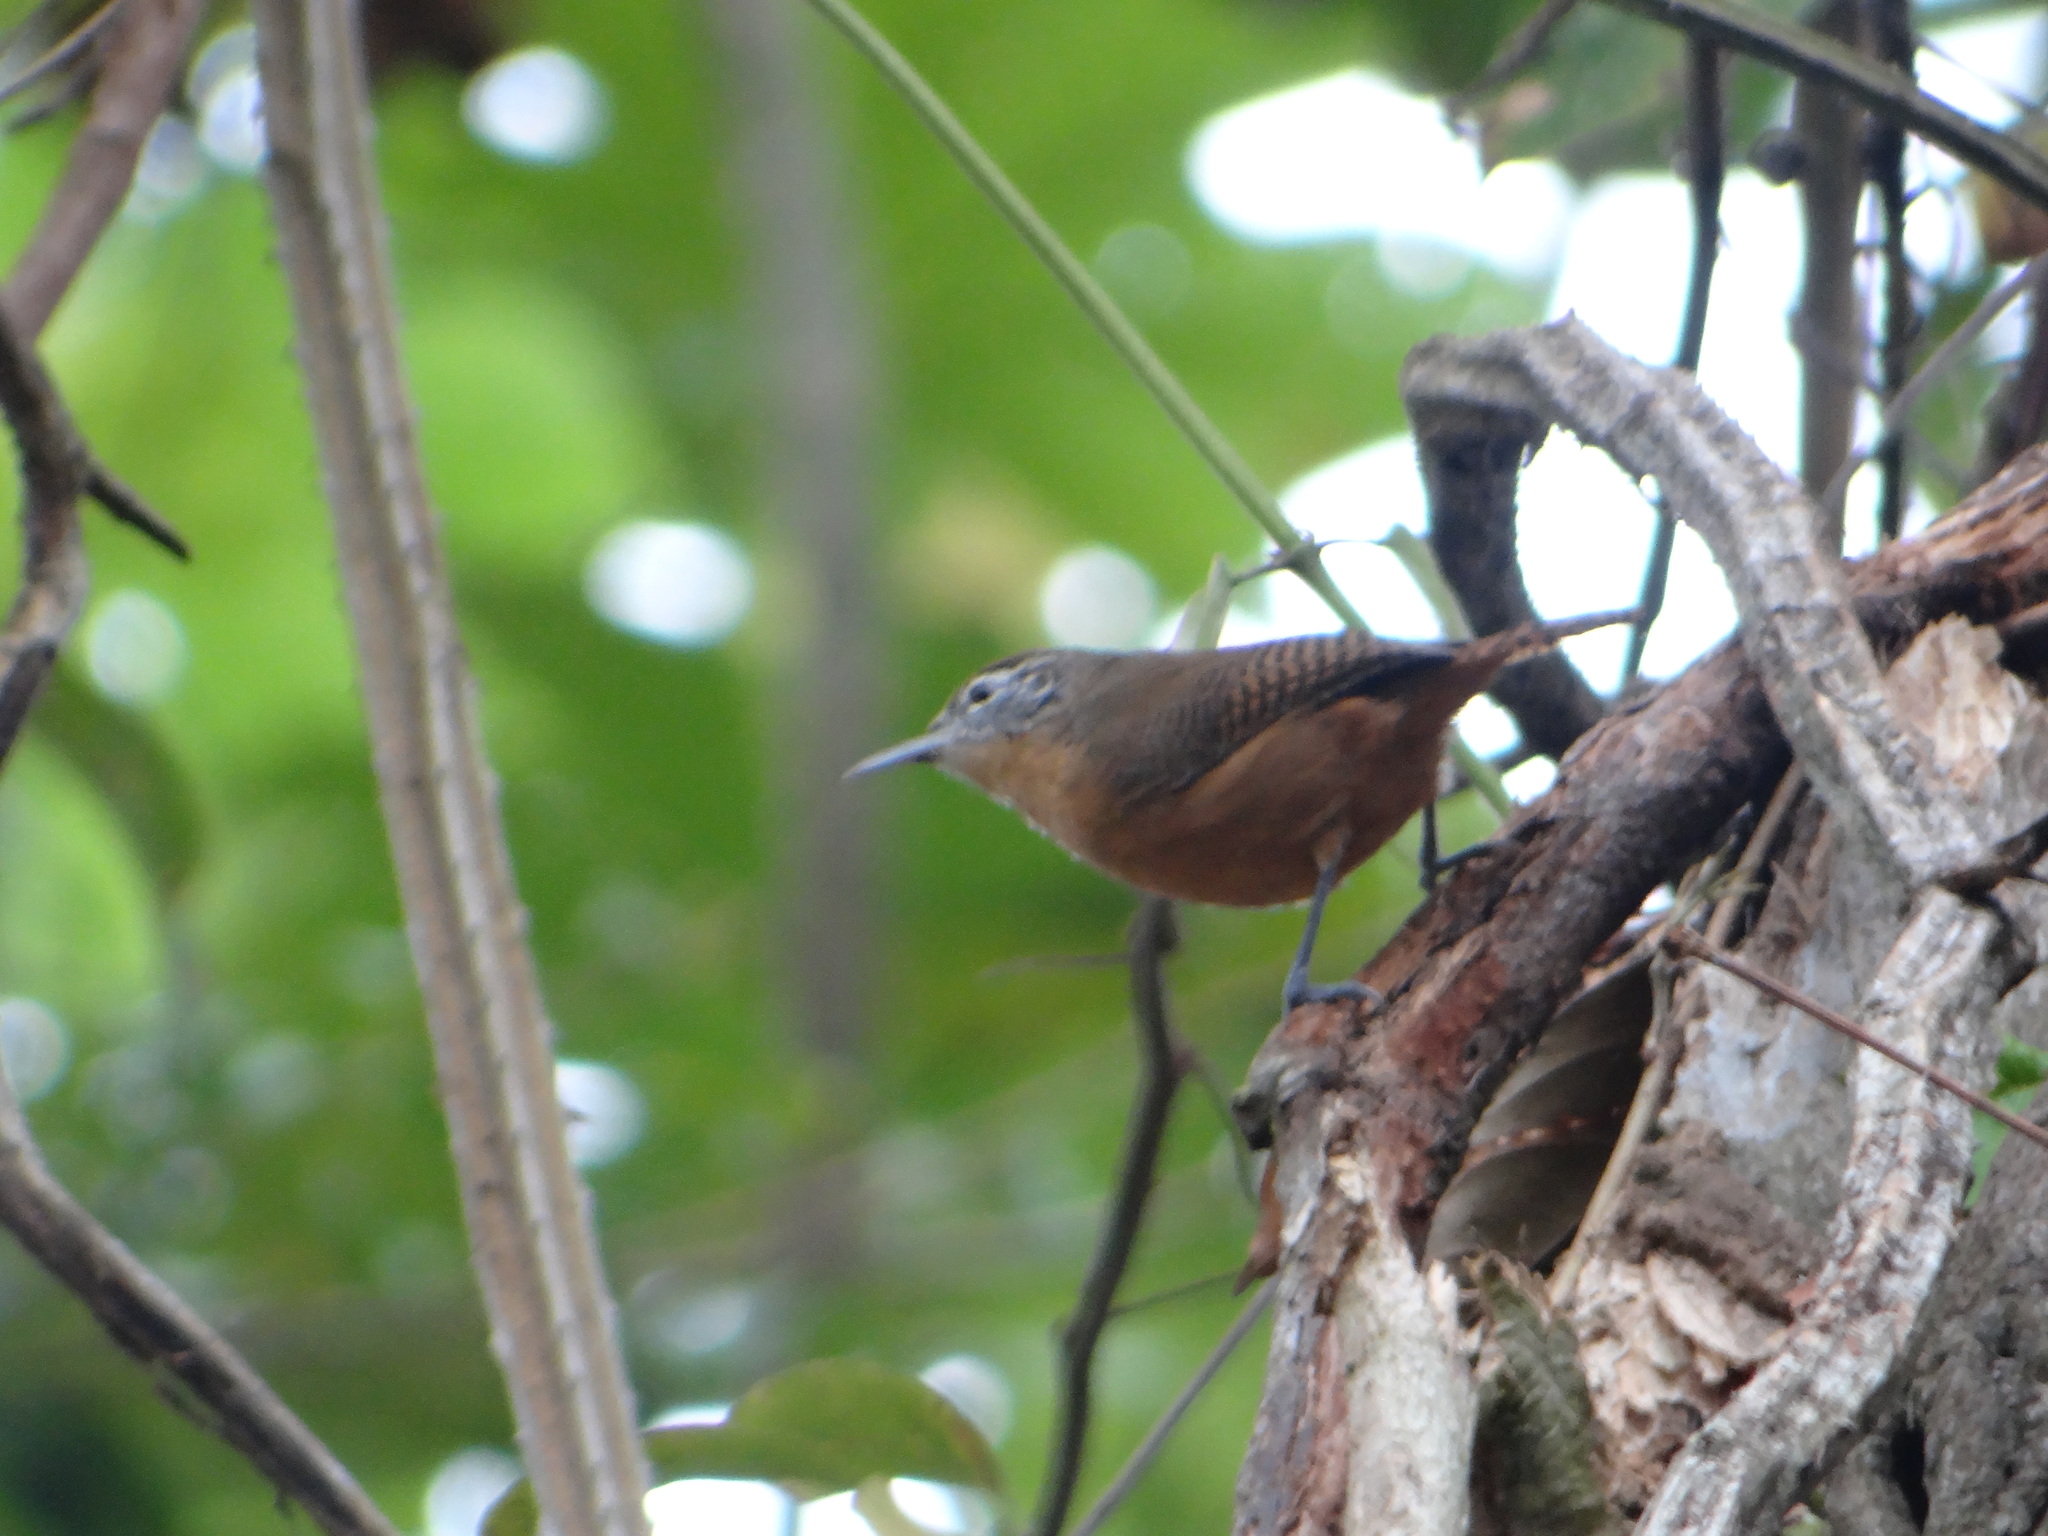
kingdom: Animalia
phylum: Chordata
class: Aves
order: Passeriformes
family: Troglodytidae
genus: Cantorchilus
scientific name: Cantorchilus guarayanus
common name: Fawn-breasted wren
